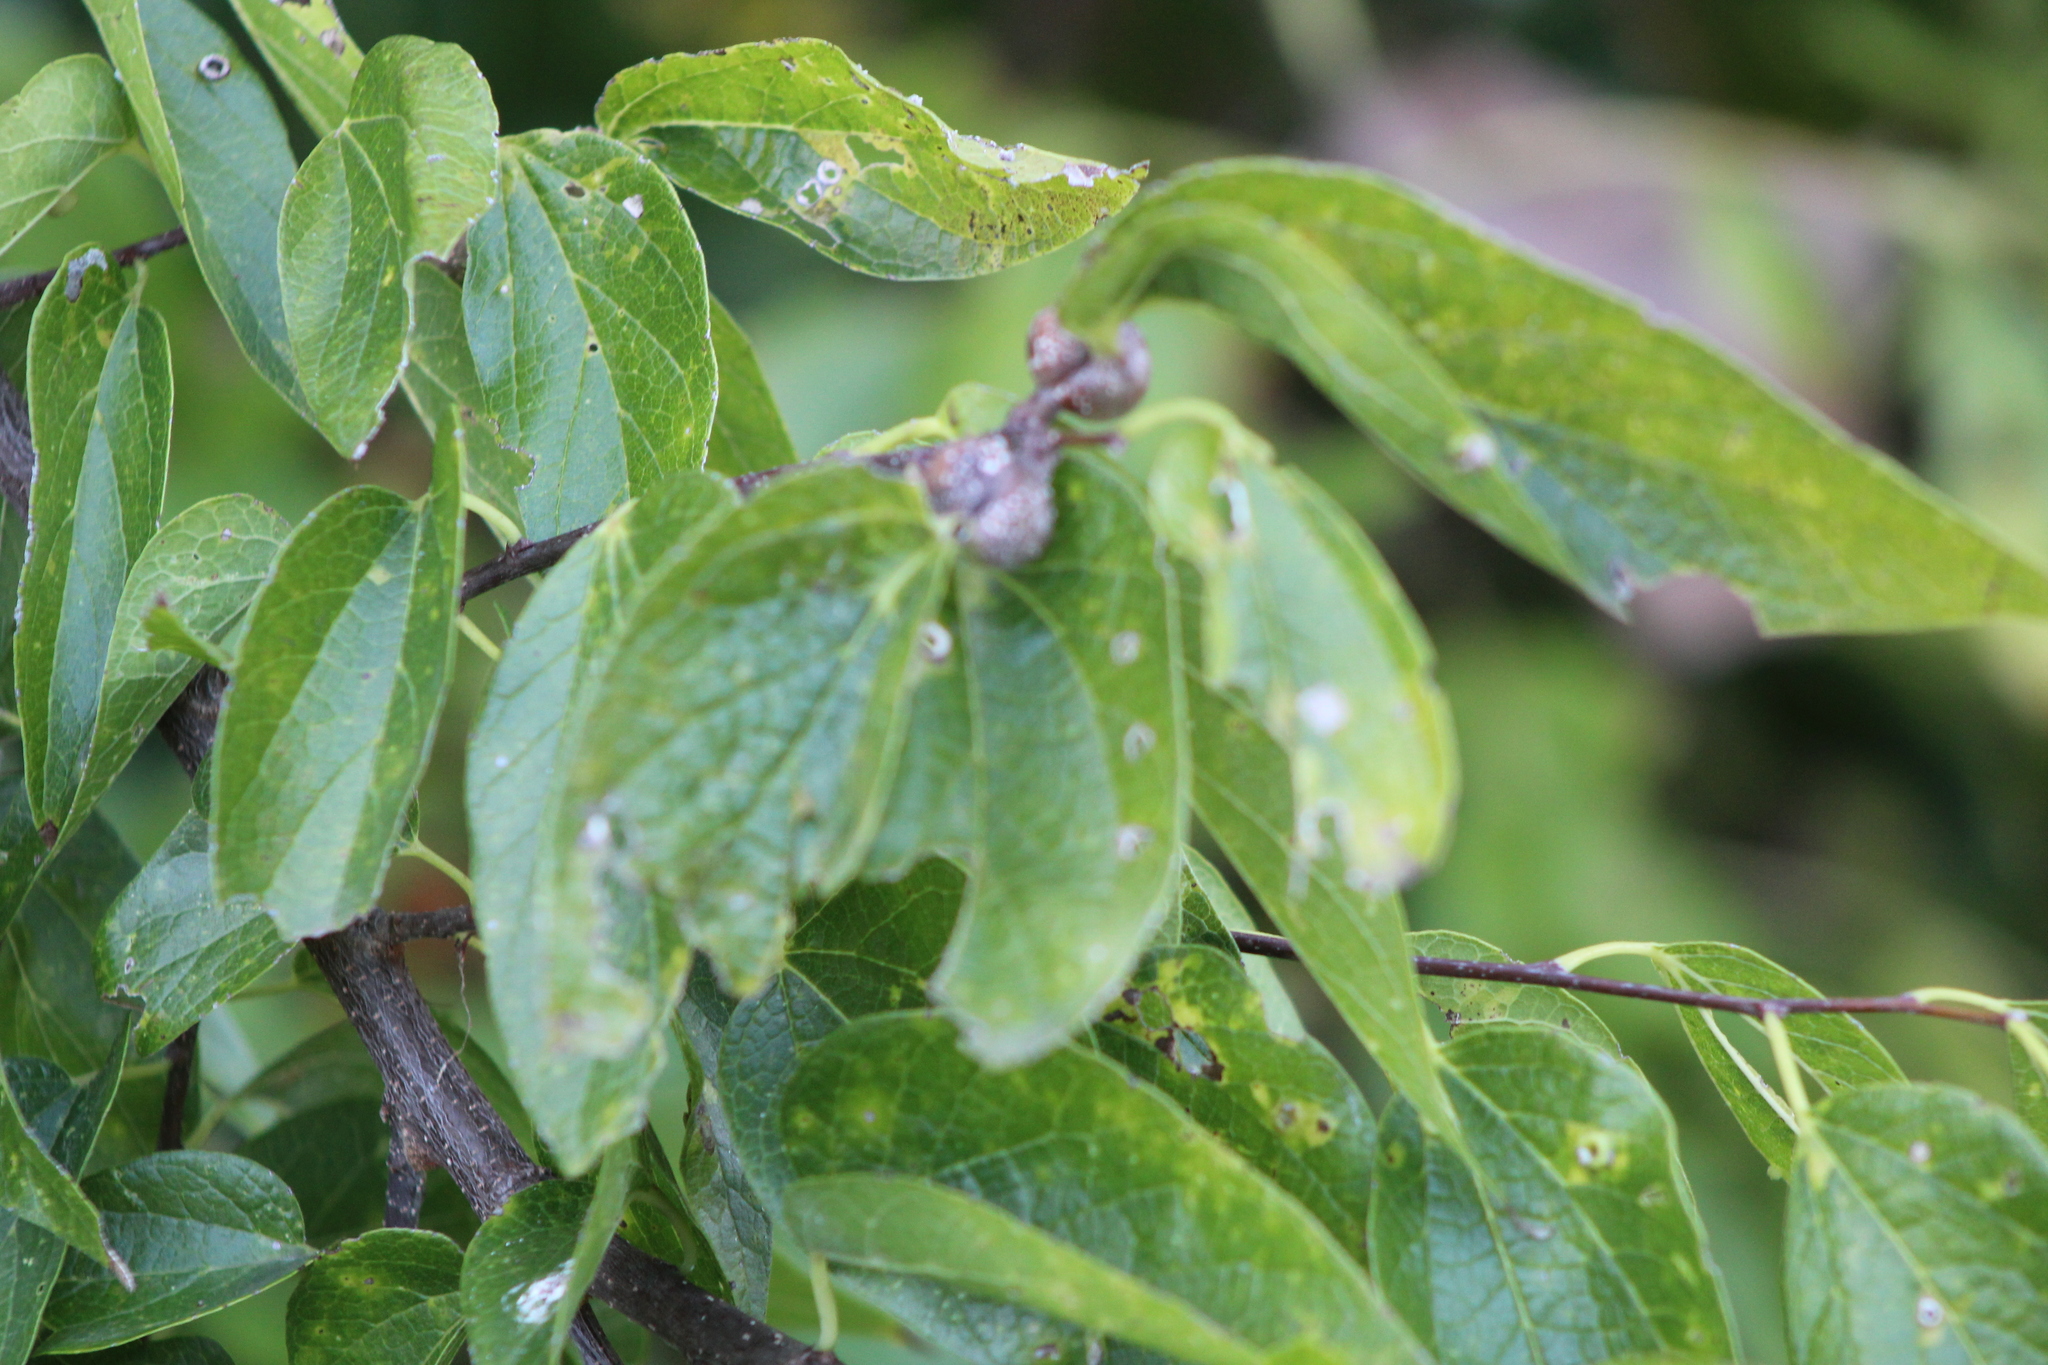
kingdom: Animalia
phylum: Arthropoda
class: Insecta
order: Hemiptera
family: Aphalaridae
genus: Pachypsylla
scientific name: Pachypsylla venusta
